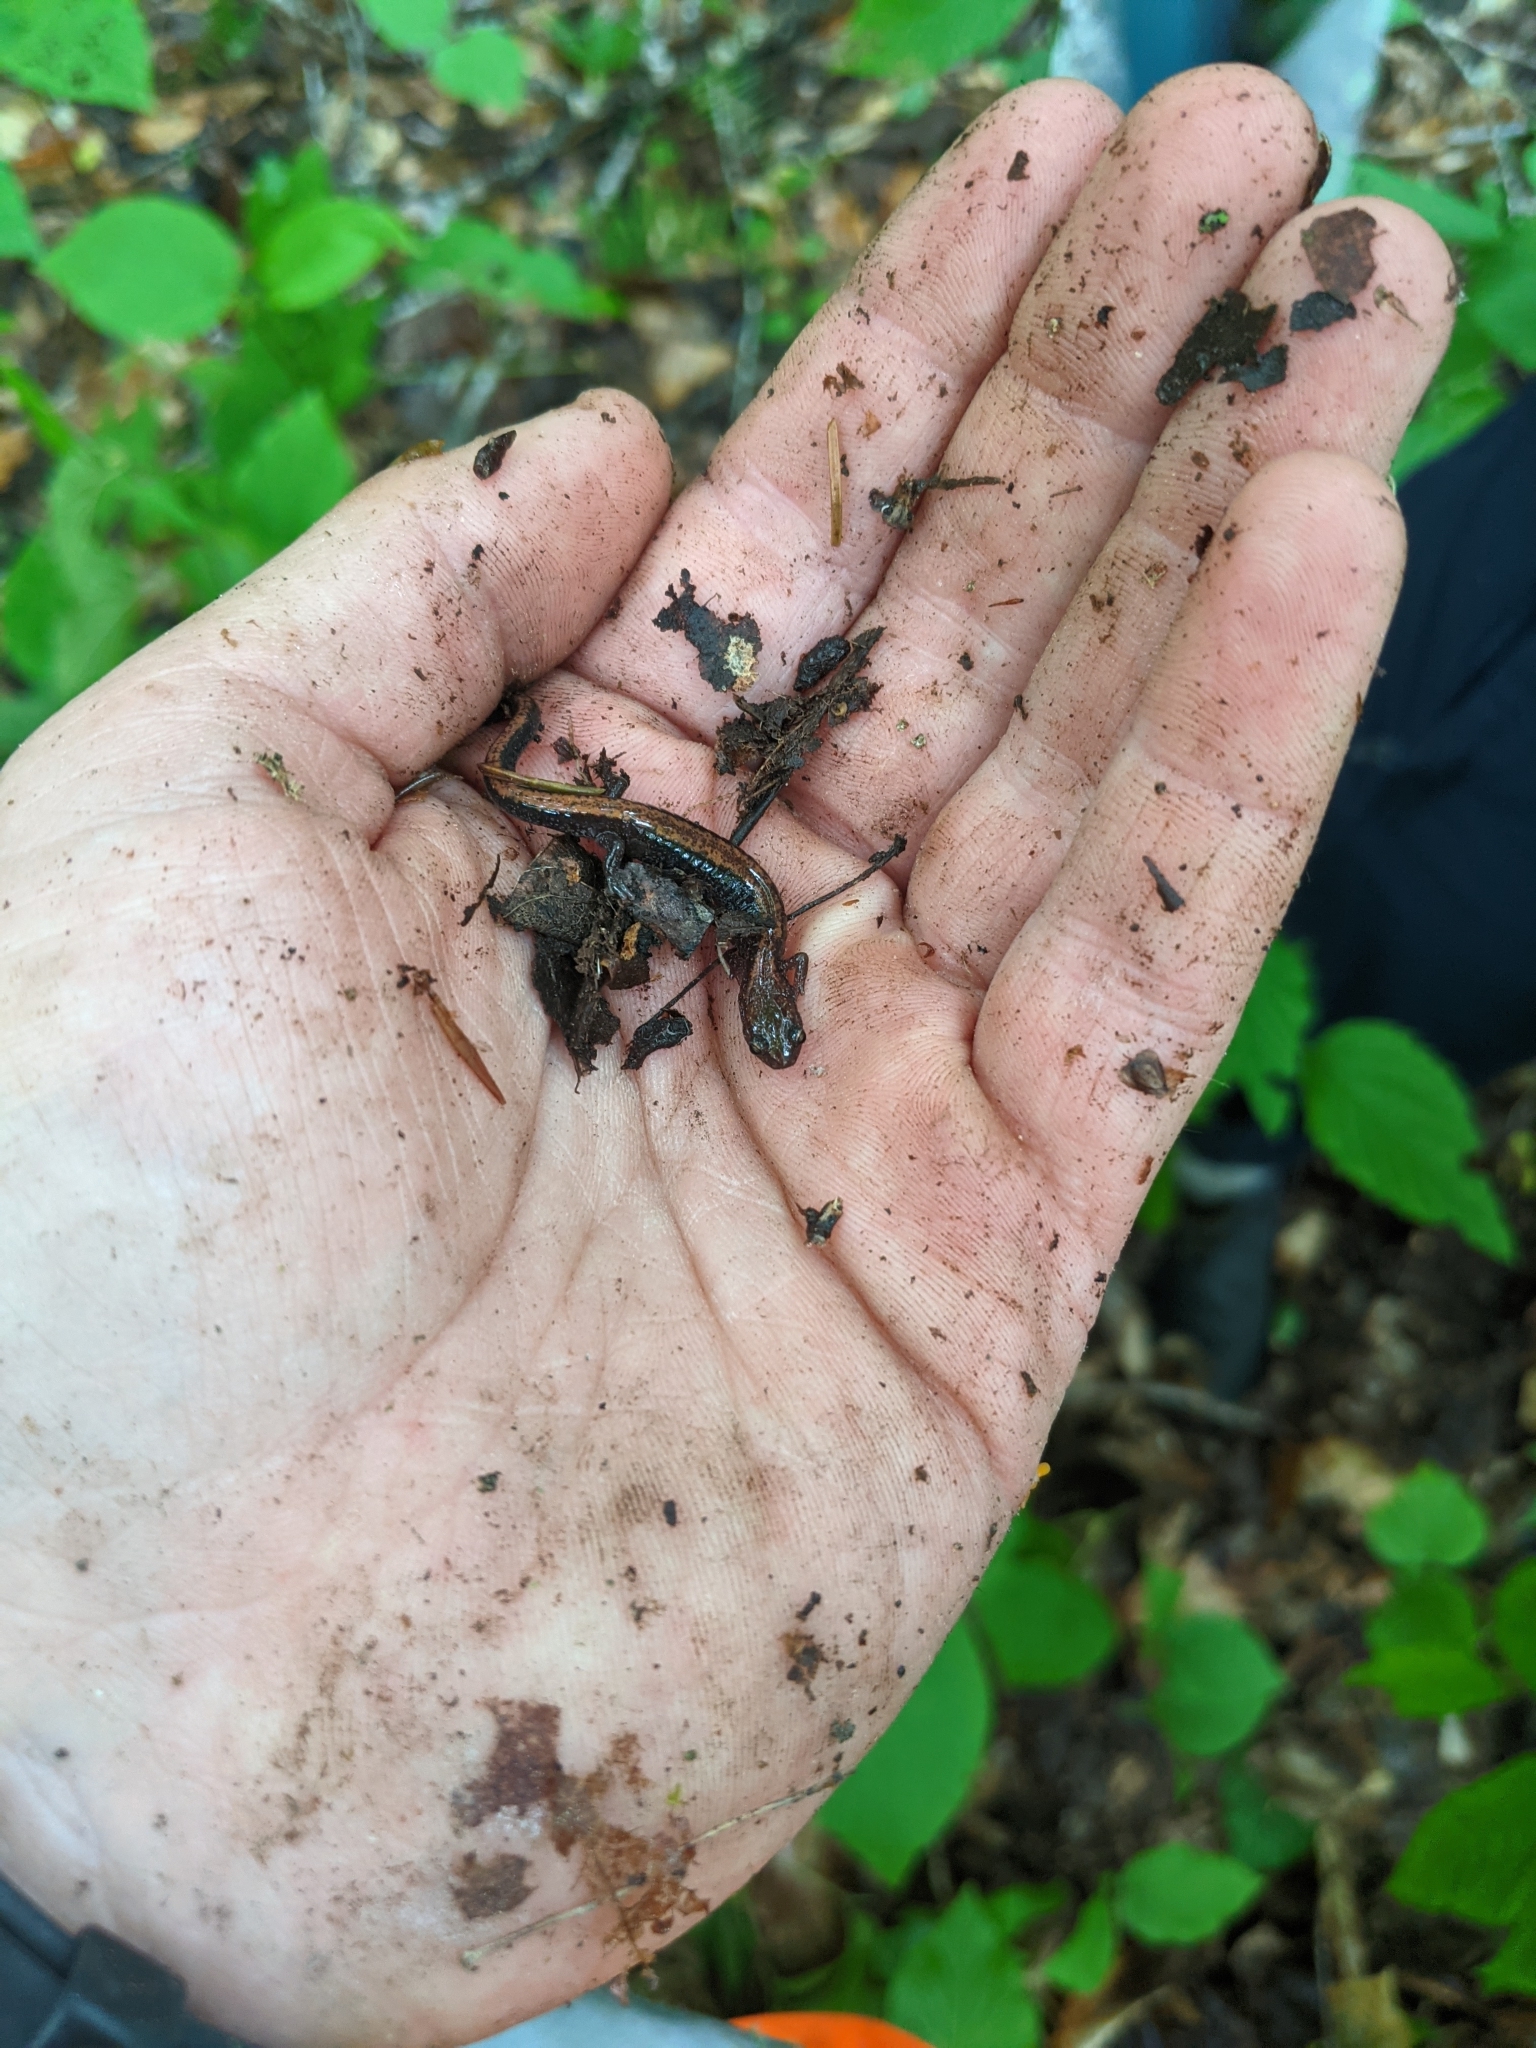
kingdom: Animalia
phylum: Chordata
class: Amphibia
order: Caudata
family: Plethodontidae
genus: Plethodon
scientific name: Plethodon cinereus
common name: Redback salamander
